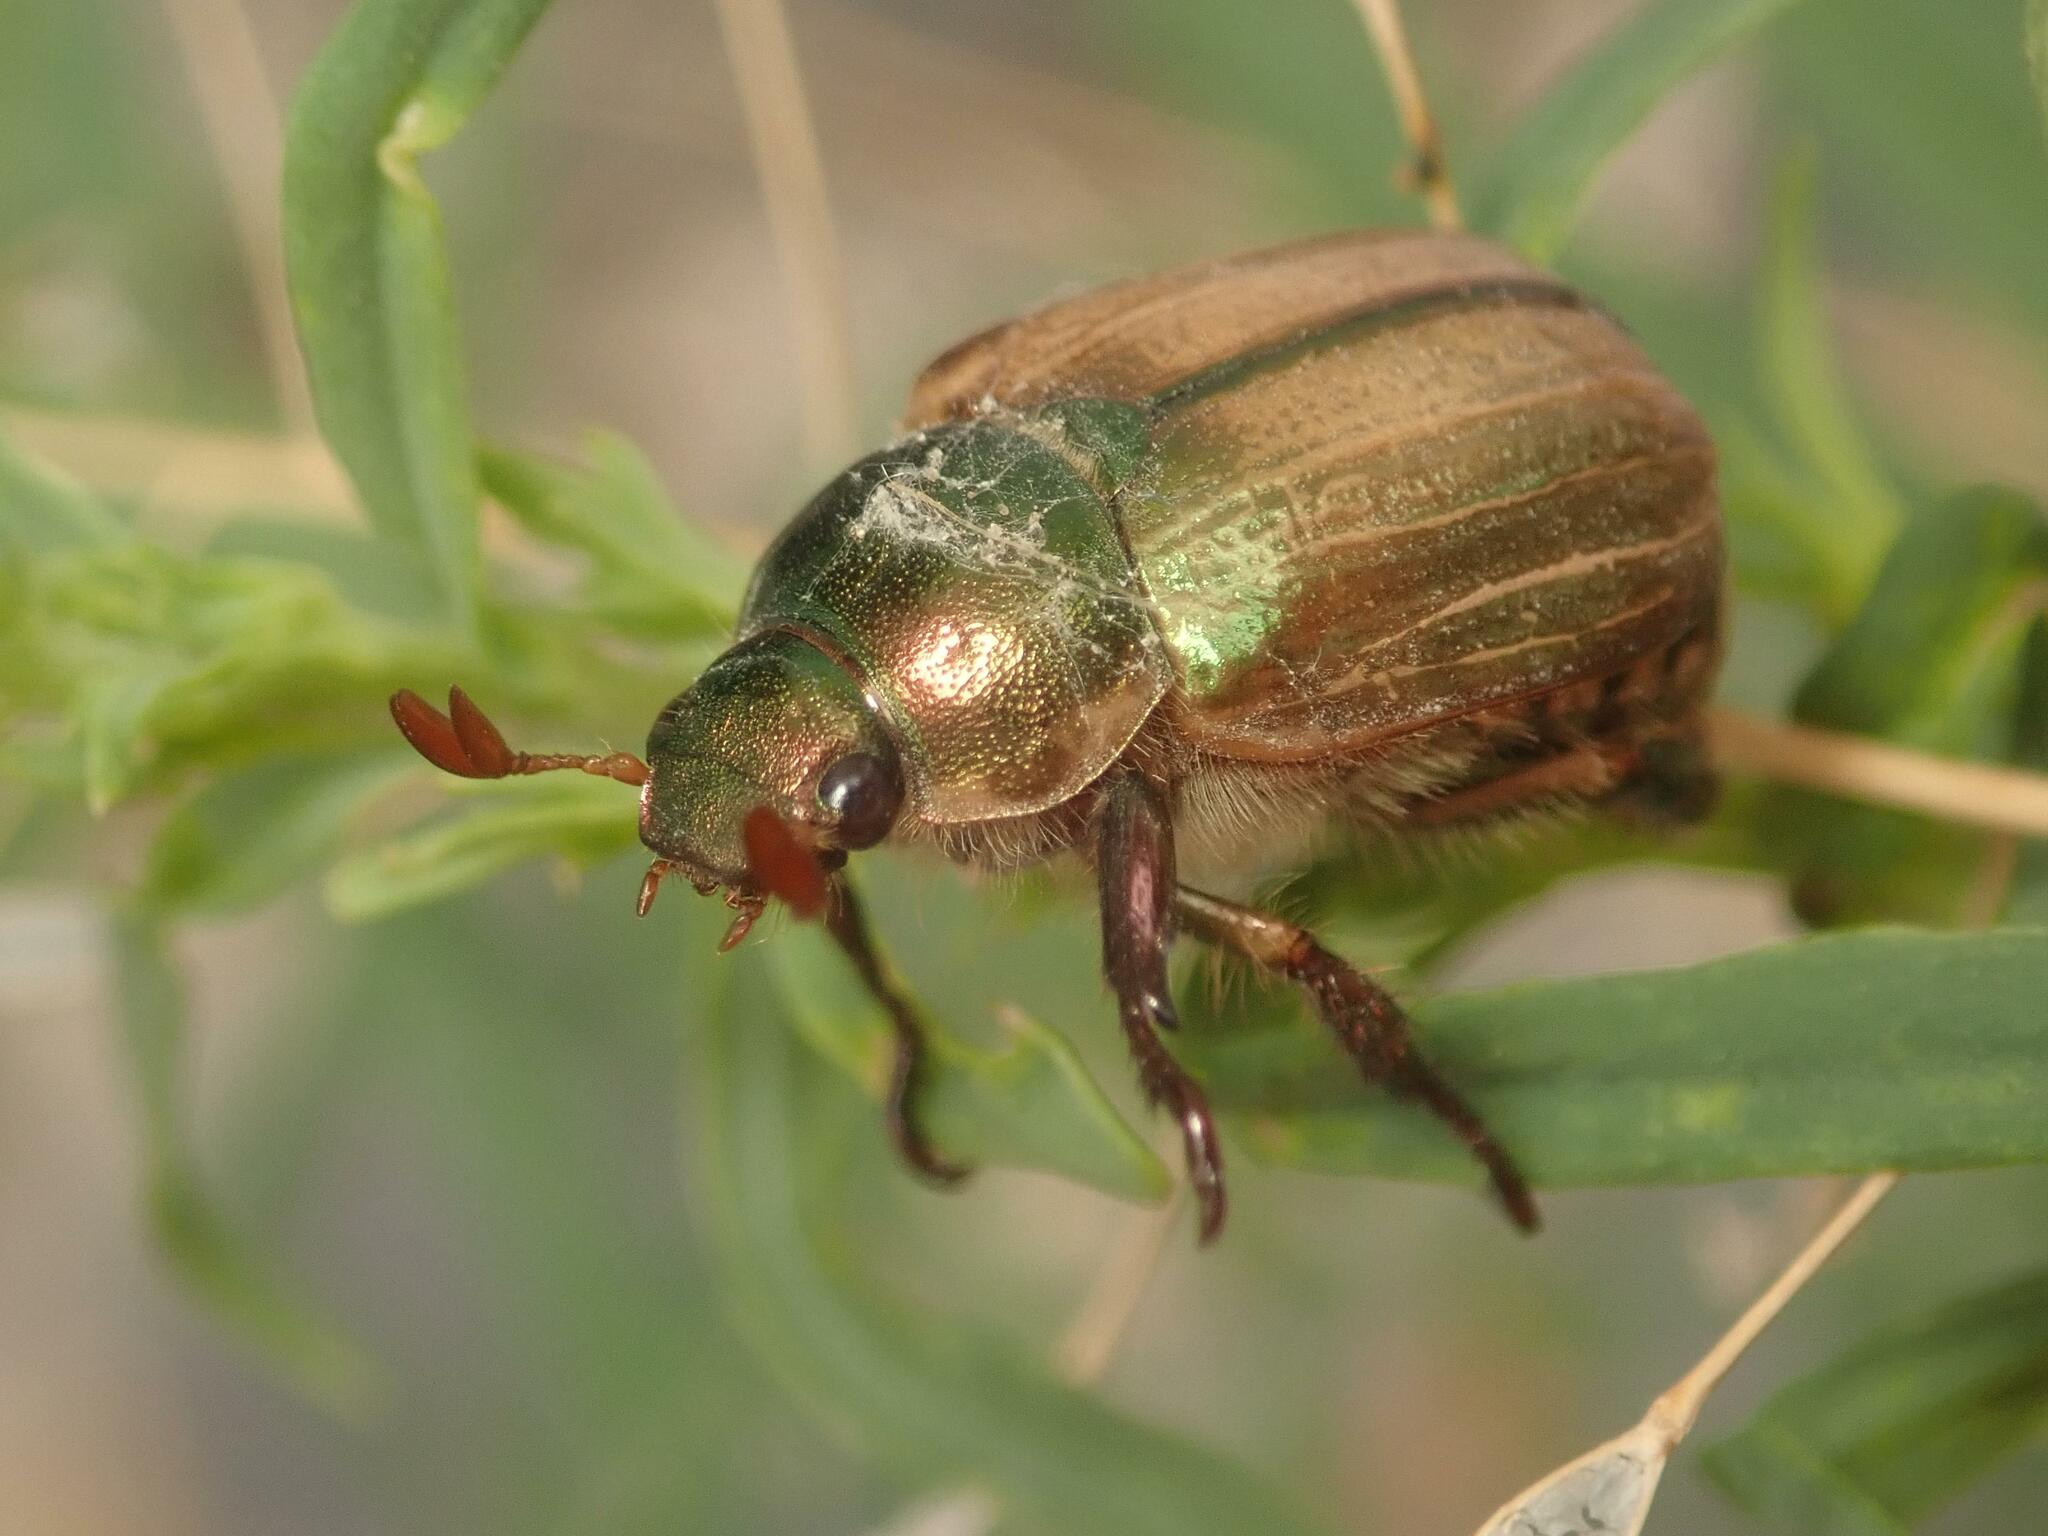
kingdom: Animalia
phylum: Arthropoda
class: Insecta
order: Coleoptera
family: Scarabaeidae
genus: Mimela
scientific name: Mimela junii
